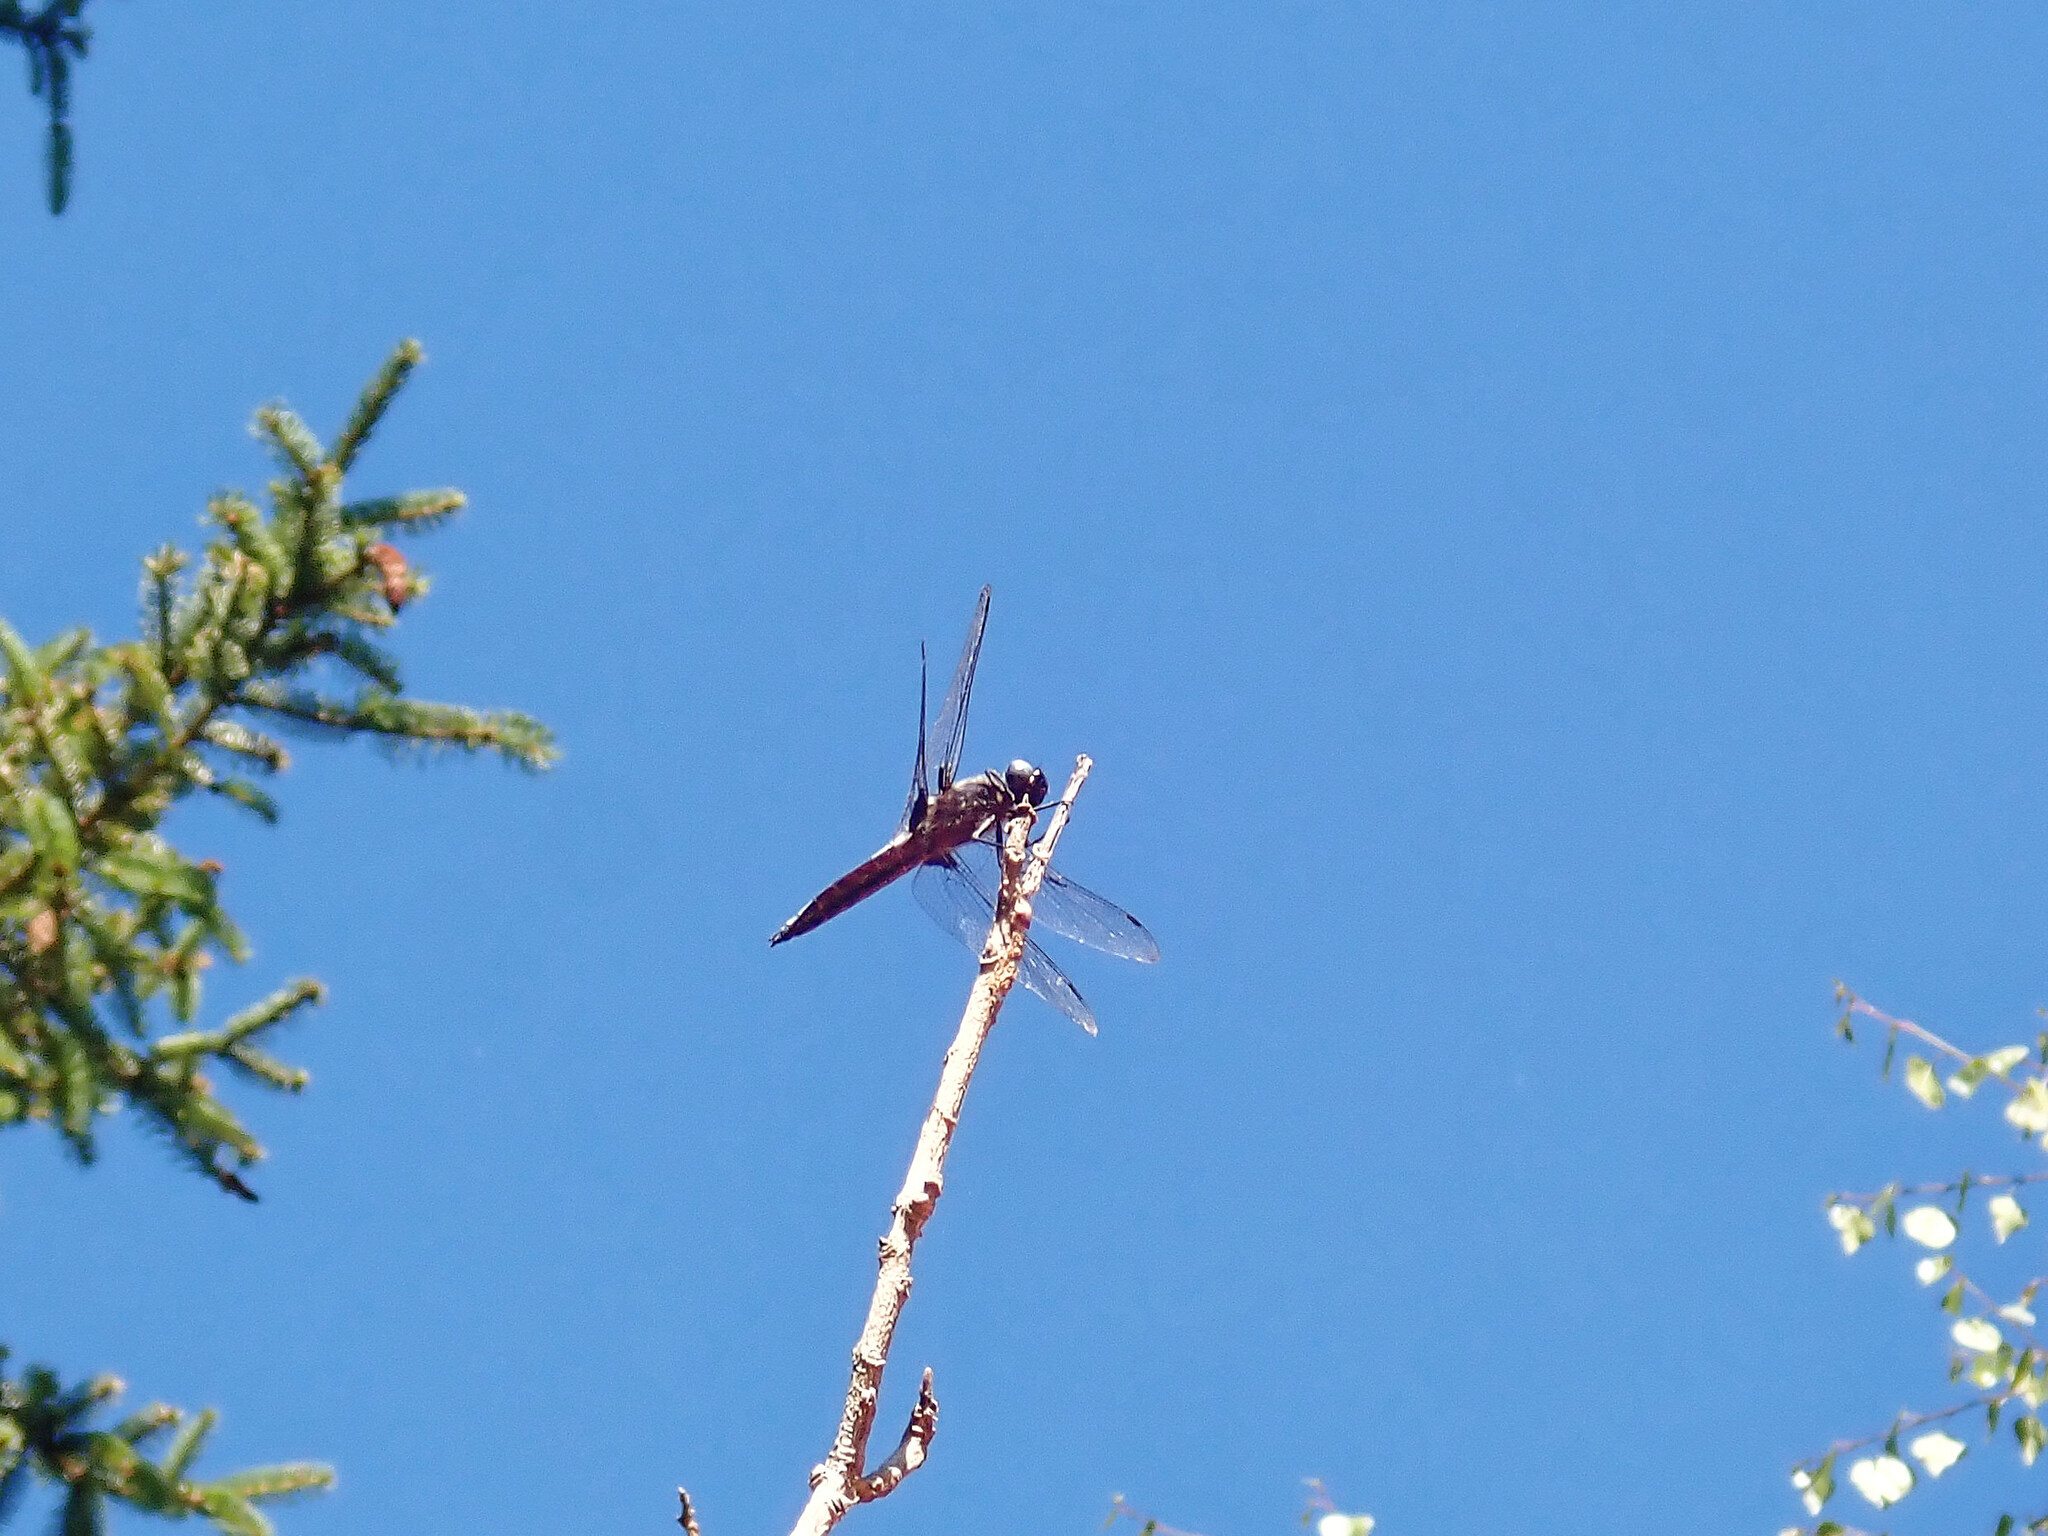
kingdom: Animalia
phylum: Arthropoda
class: Insecta
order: Odonata
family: Libellulidae
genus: Libellula
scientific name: Libellula fulva
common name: Blue chaser
